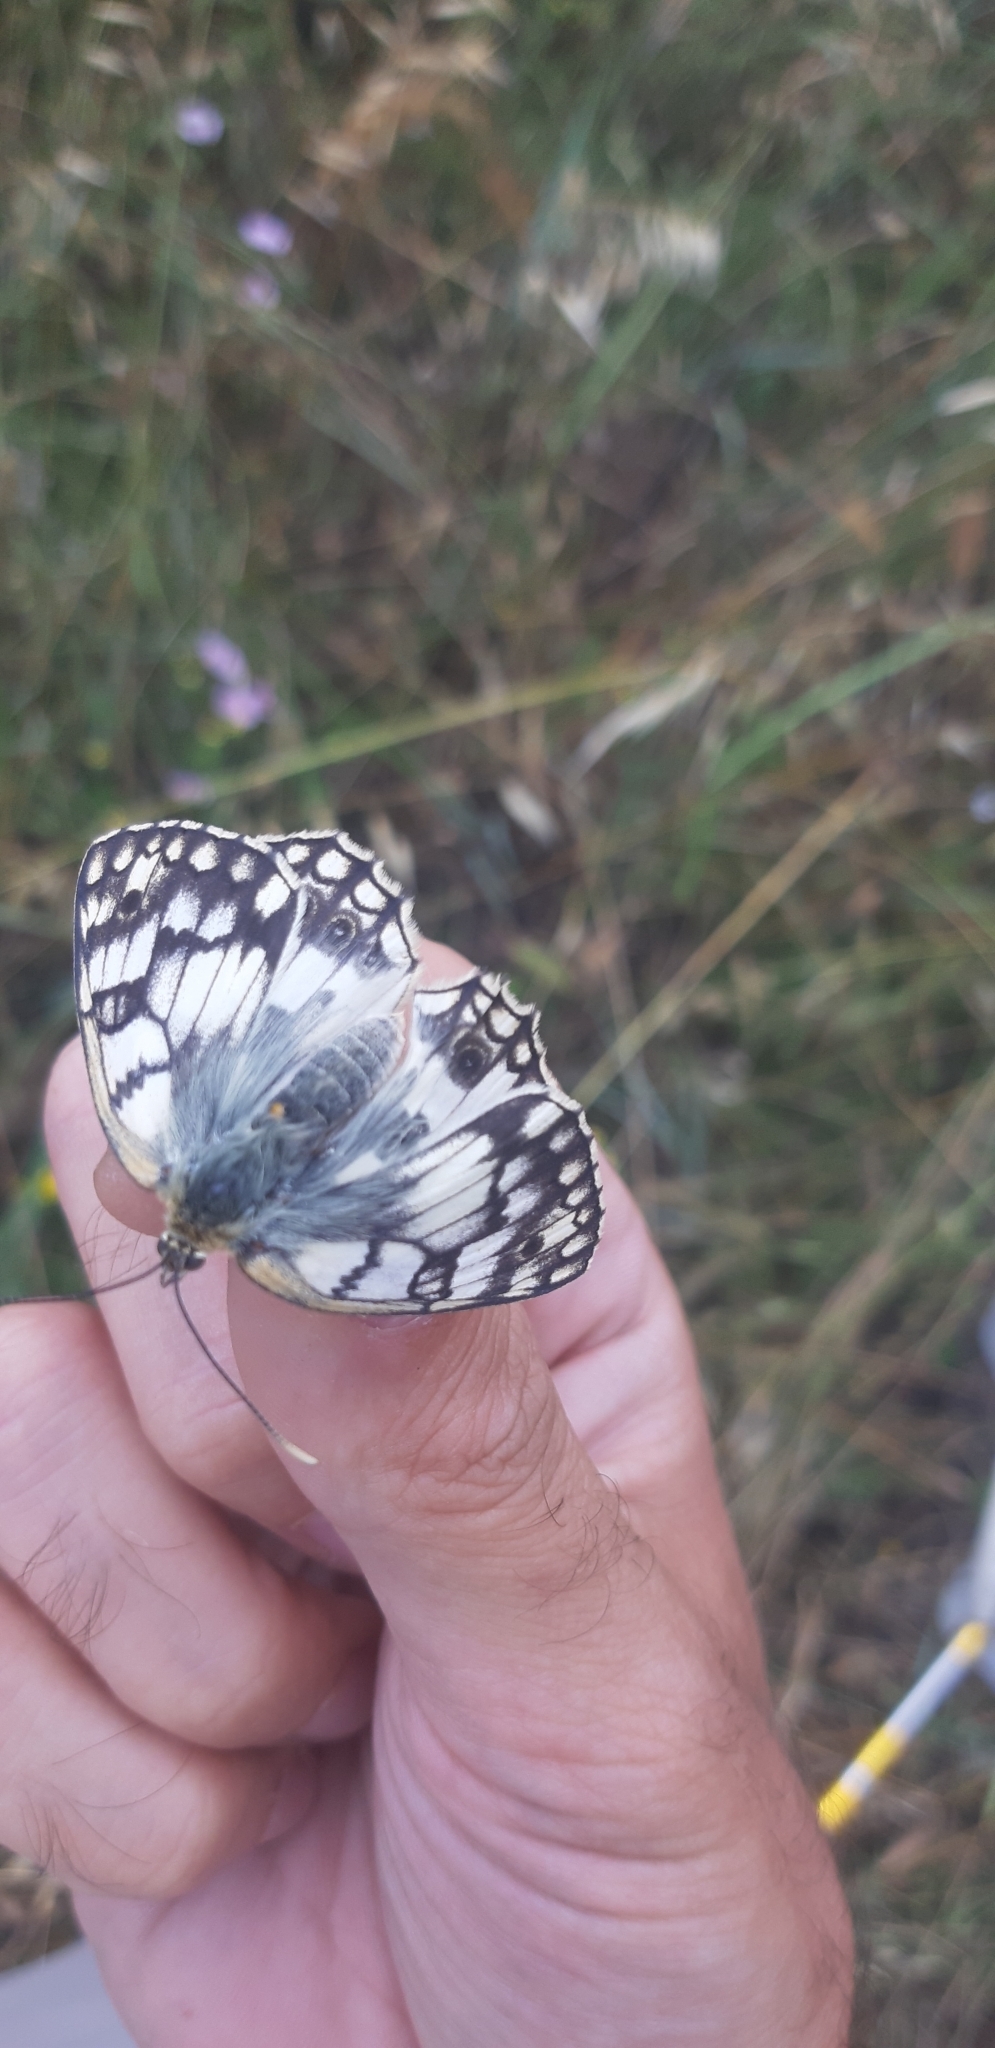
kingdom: Animalia
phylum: Arthropoda
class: Insecta
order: Lepidoptera
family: Nymphalidae
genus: Melanargia
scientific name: Melanargia japygia
